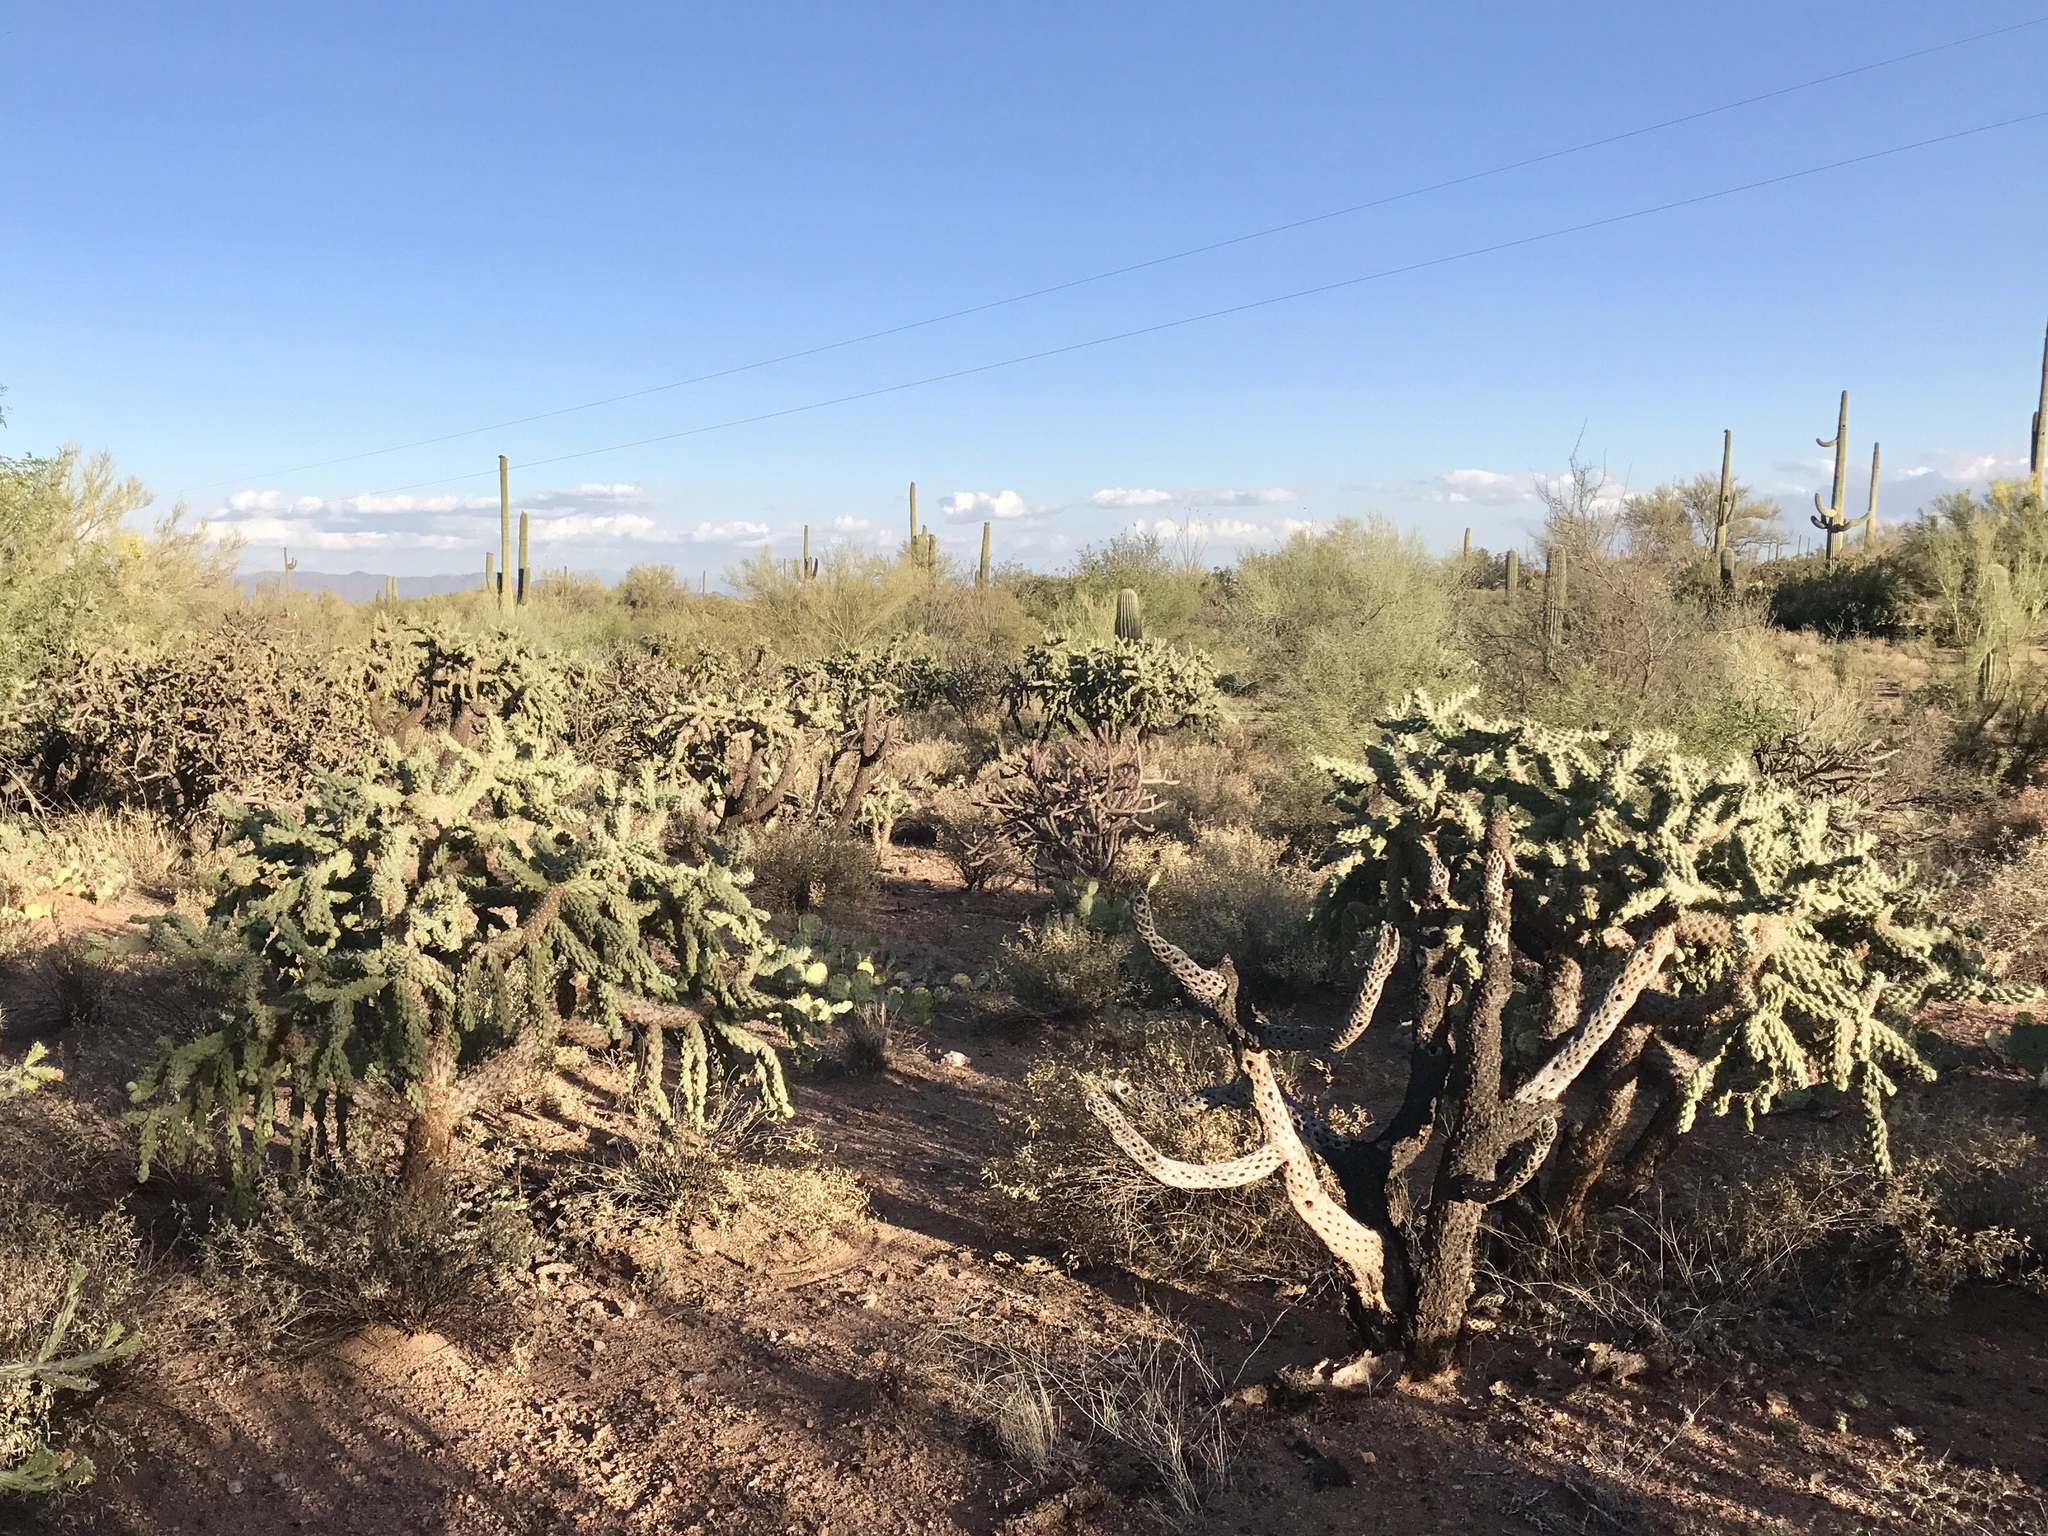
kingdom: Plantae
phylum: Tracheophyta
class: Magnoliopsida
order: Caryophyllales
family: Cactaceae
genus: Cylindropuntia
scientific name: Cylindropuntia fulgida
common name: Jumping cholla
